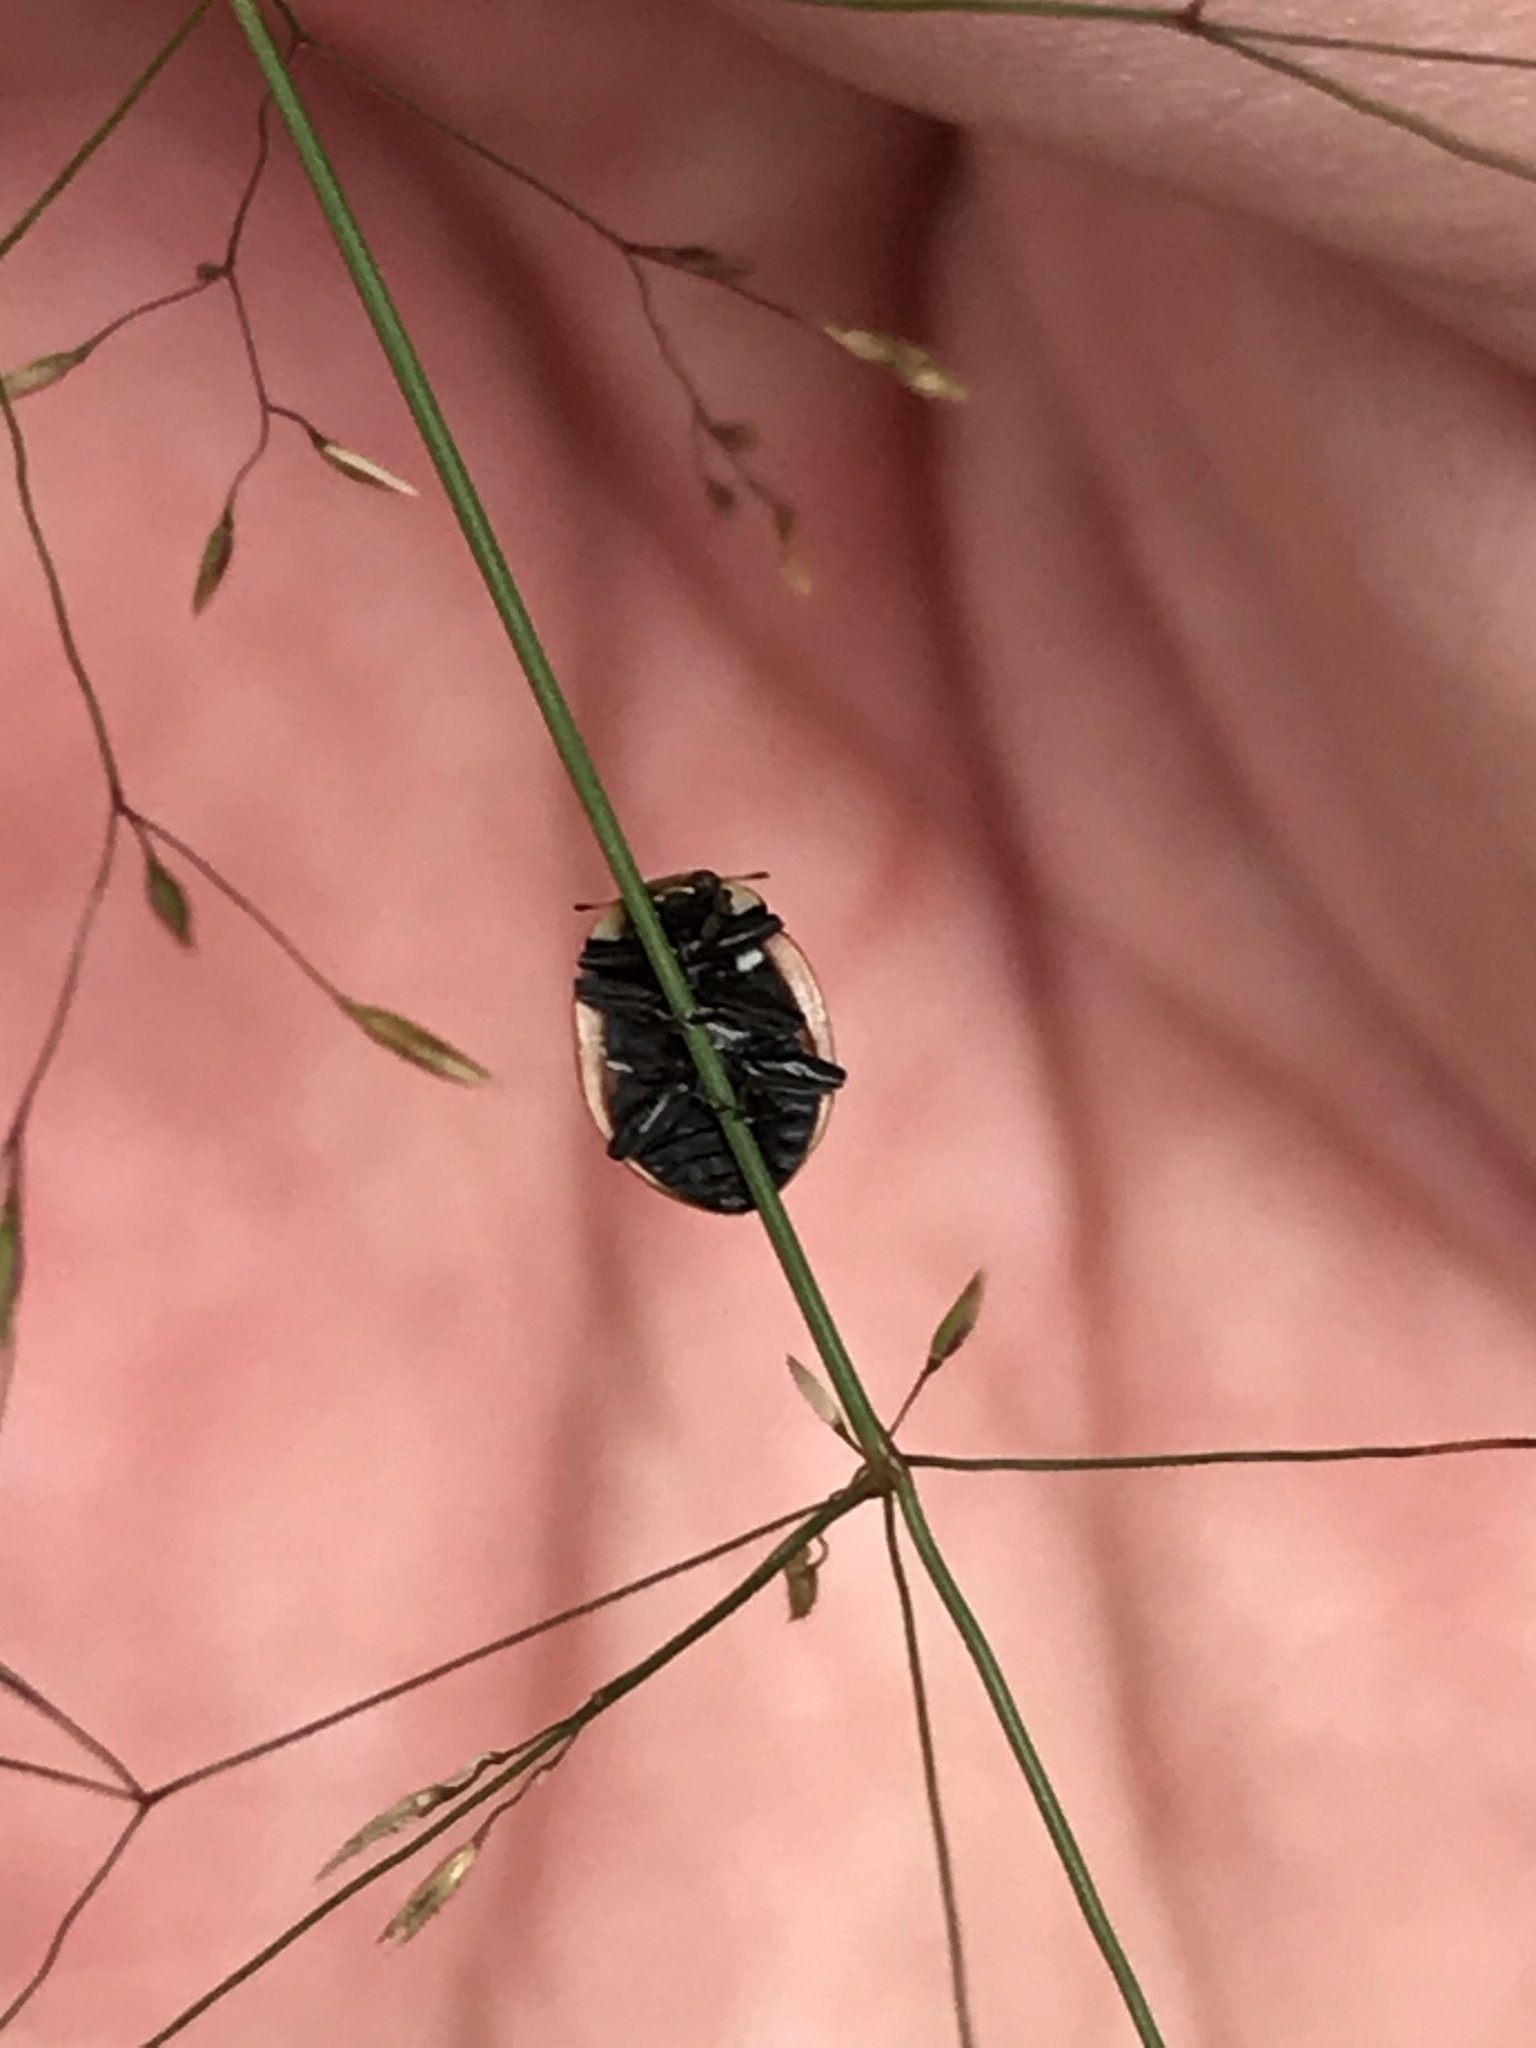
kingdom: Animalia
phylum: Arthropoda
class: Insecta
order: Coleoptera
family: Coccinellidae
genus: Coccinella
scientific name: Coccinella trifasciata
